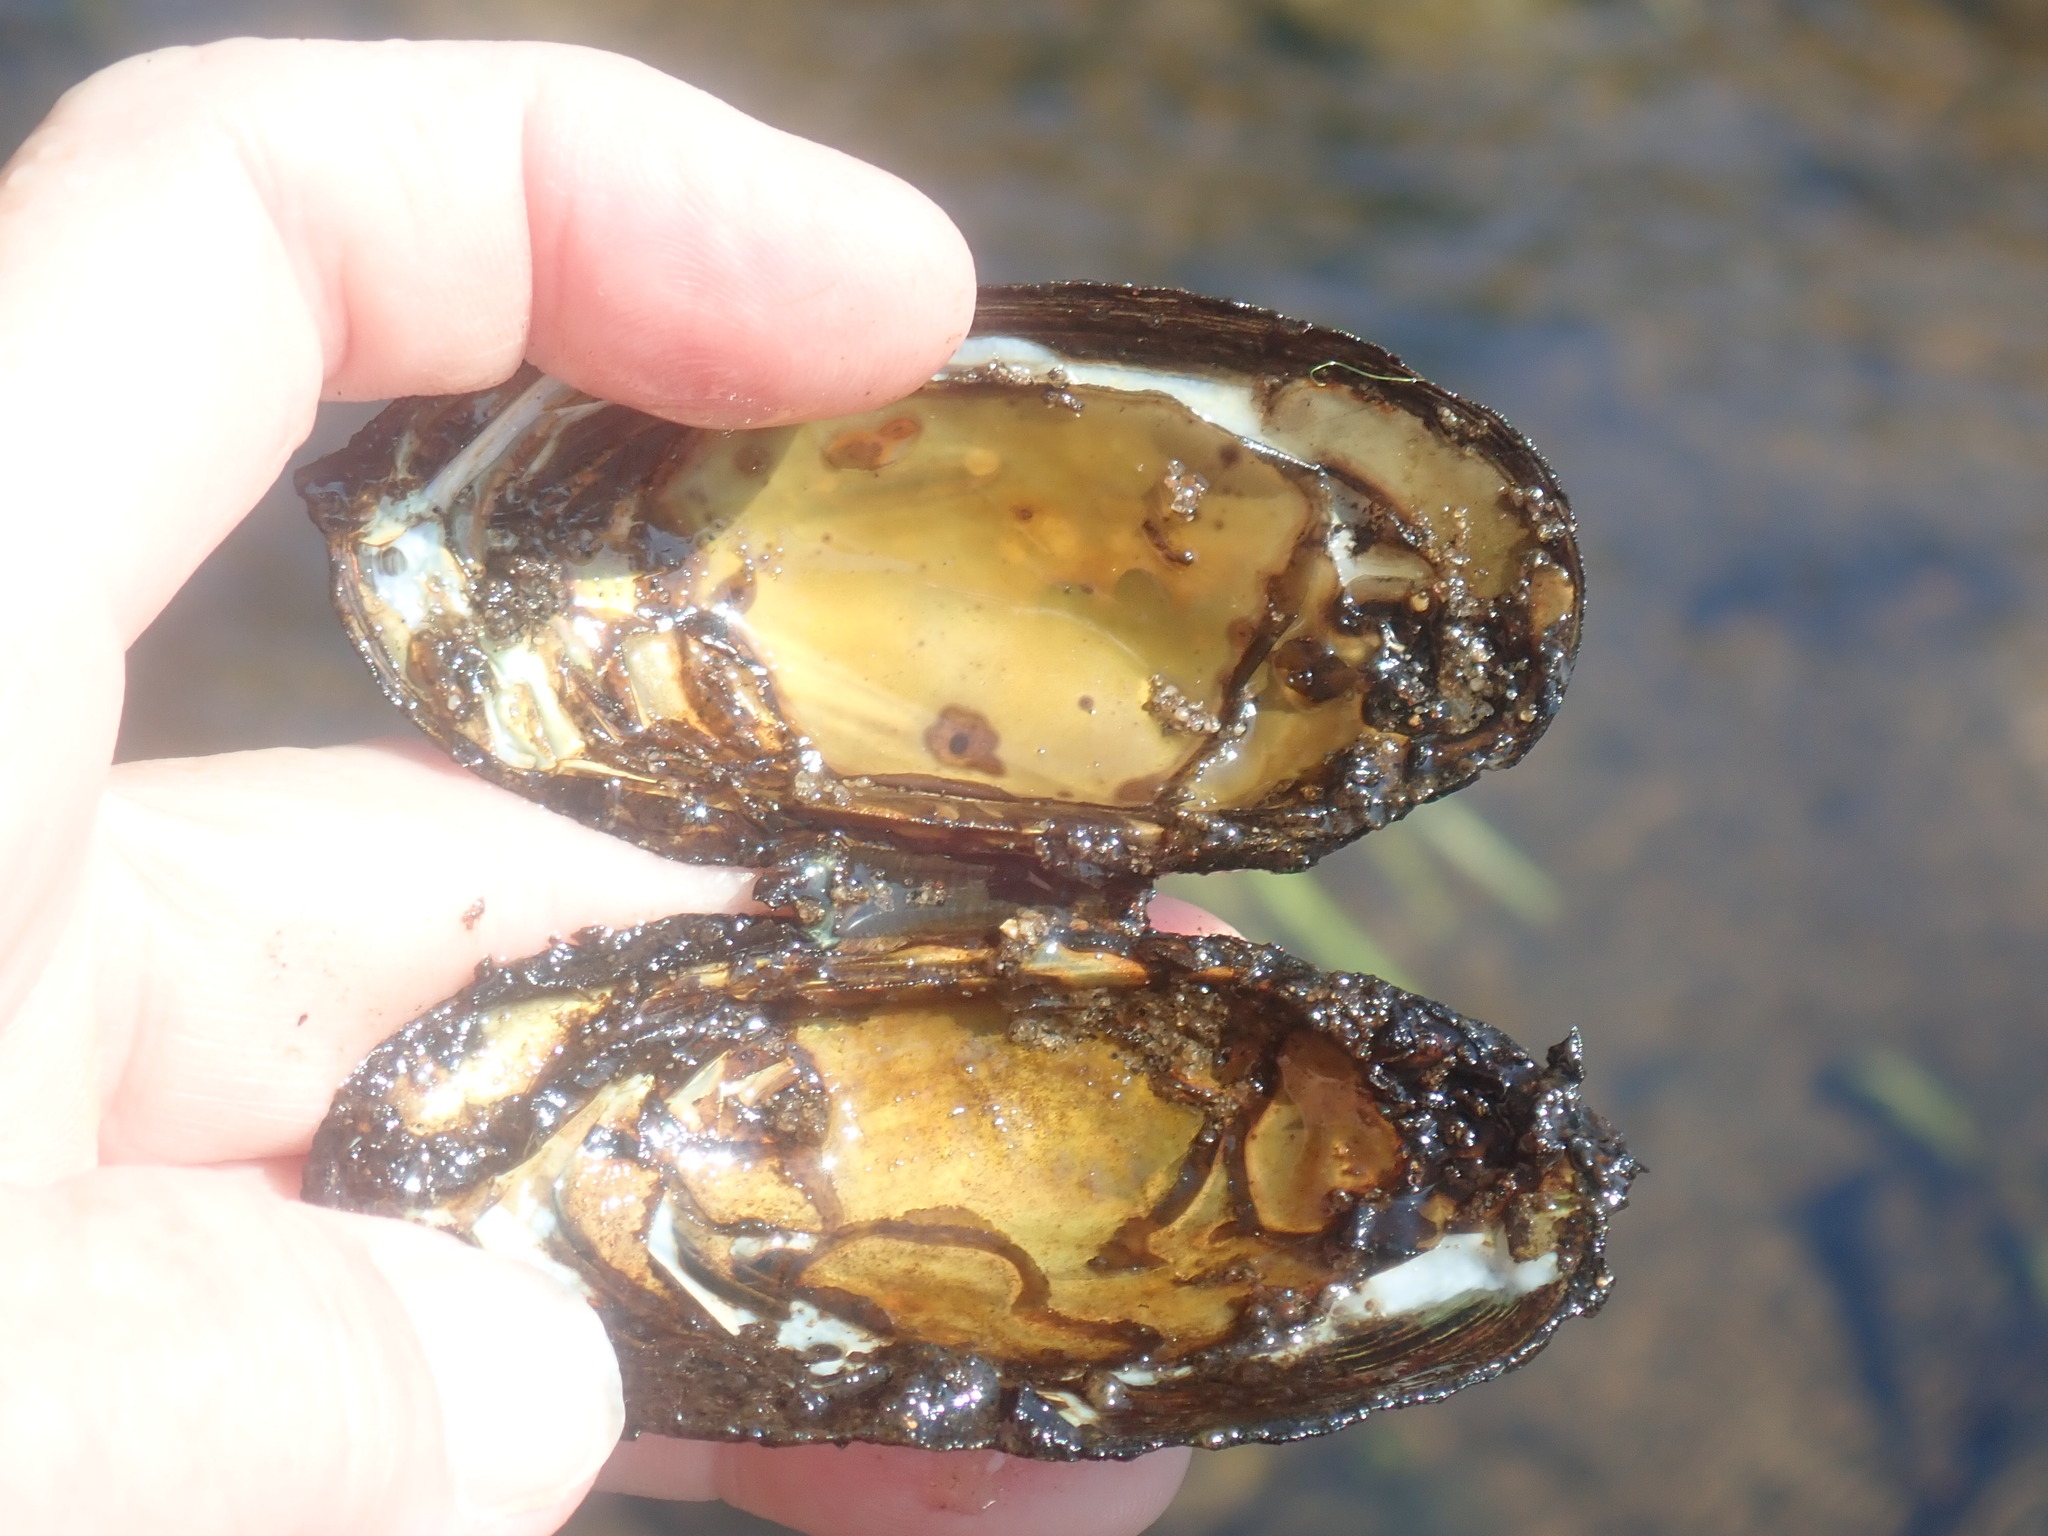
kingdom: Animalia
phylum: Mollusca
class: Bivalvia
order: Unionida
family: Unionidae
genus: Elliptio
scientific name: Elliptio complanata
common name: Eastern elliptio
